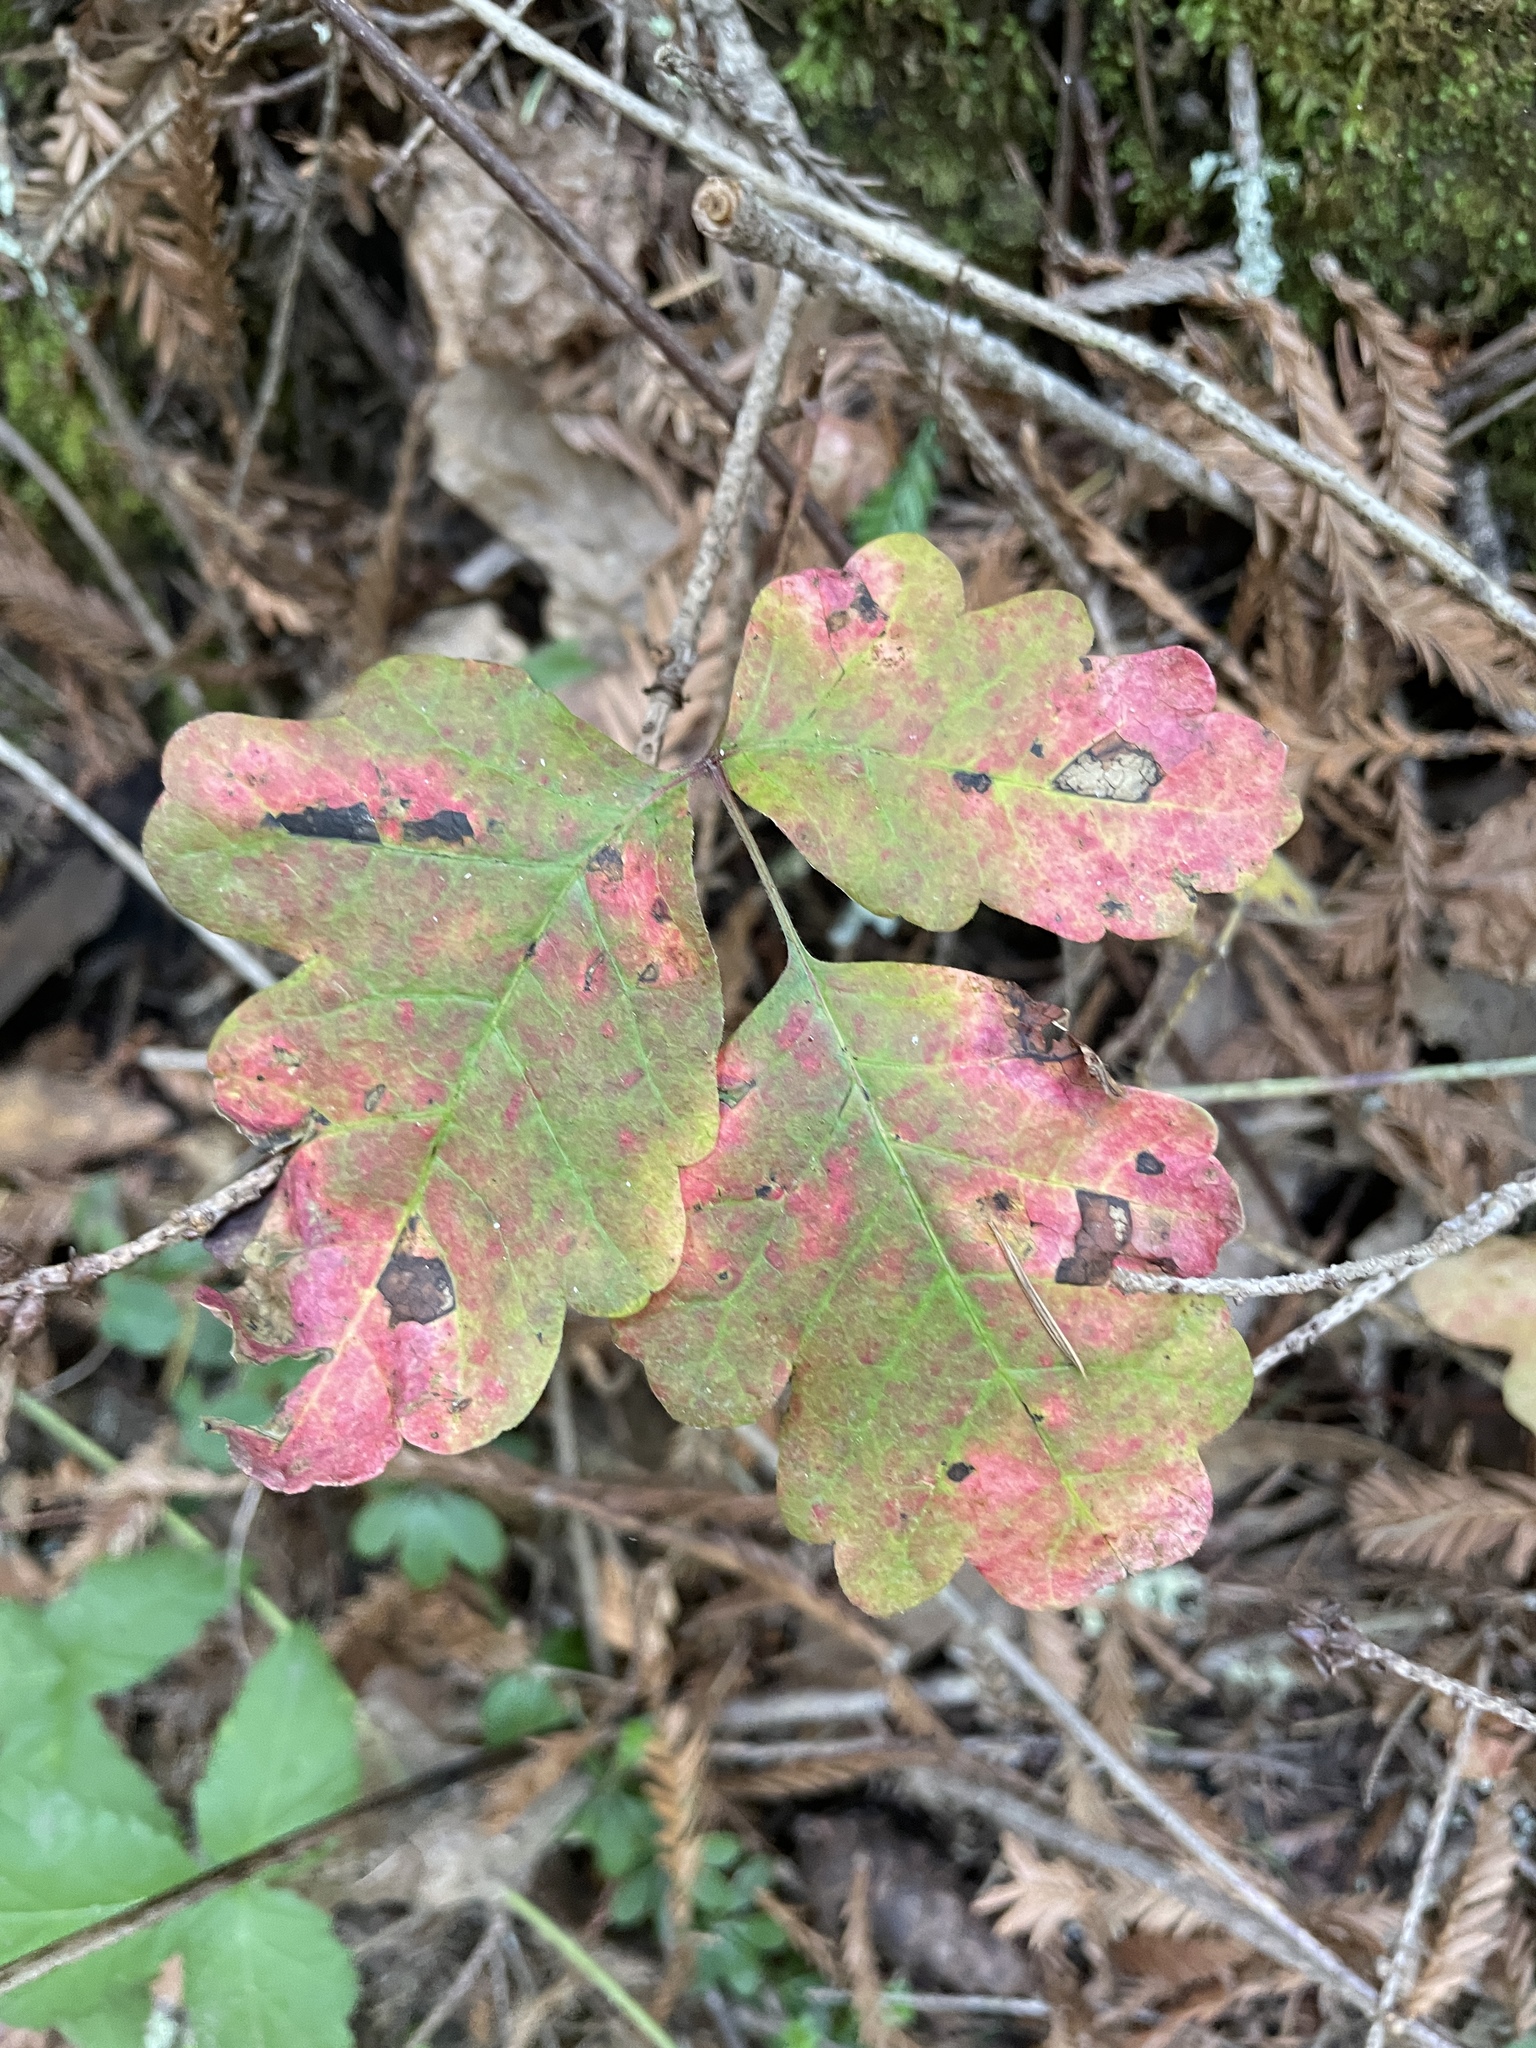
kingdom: Plantae
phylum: Tracheophyta
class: Magnoliopsida
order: Sapindales
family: Anacardiaceae
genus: Toxicodendron
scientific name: Toxicodendron diversilobum
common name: Pacific poison-oak
